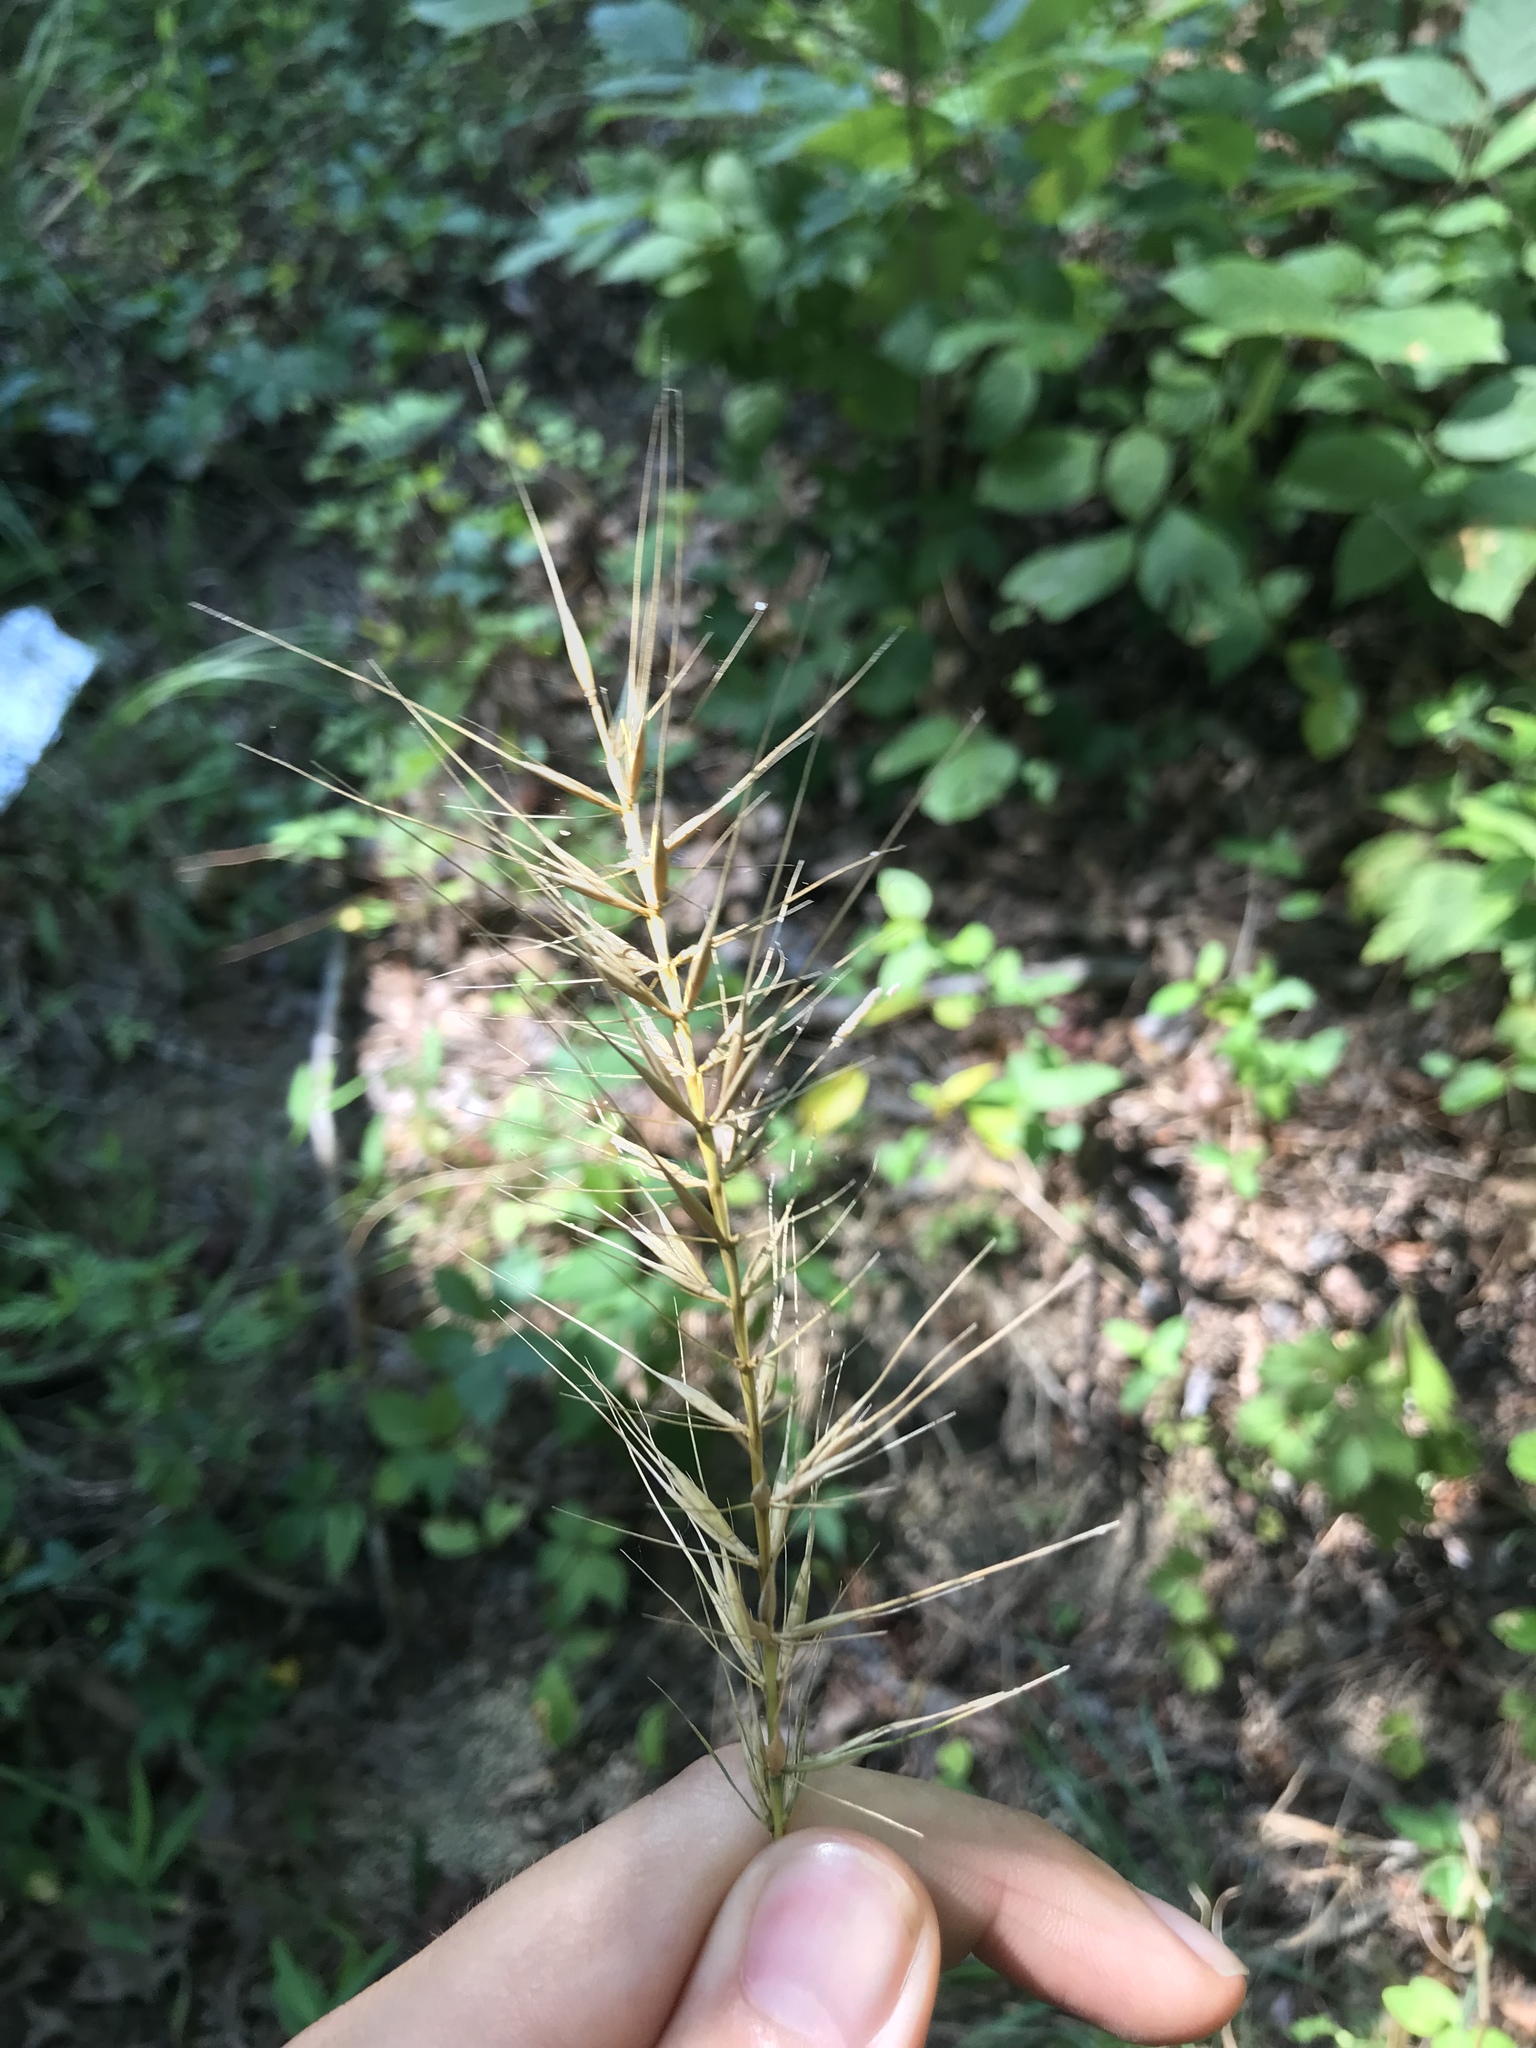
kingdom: Plantae
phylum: Tracheophyta
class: Liliopsida
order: Poales
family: Poaceae
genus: Elymus
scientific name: Elymus hystrix
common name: Bottlebrush grass
